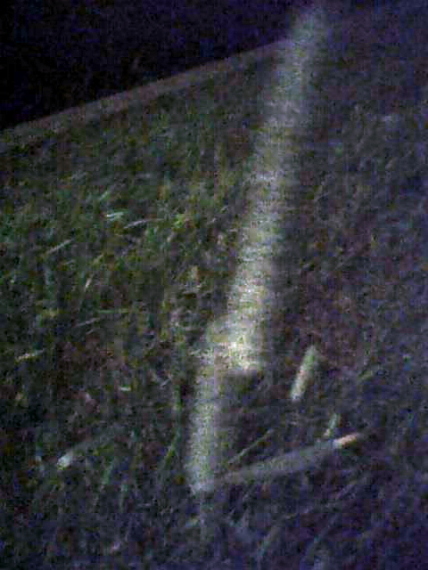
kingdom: Plantae
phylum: Tracheophyta
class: Liliopsida
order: Poales
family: Poaceae
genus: Phleum
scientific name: Phleum pratense
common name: Timothy grass
